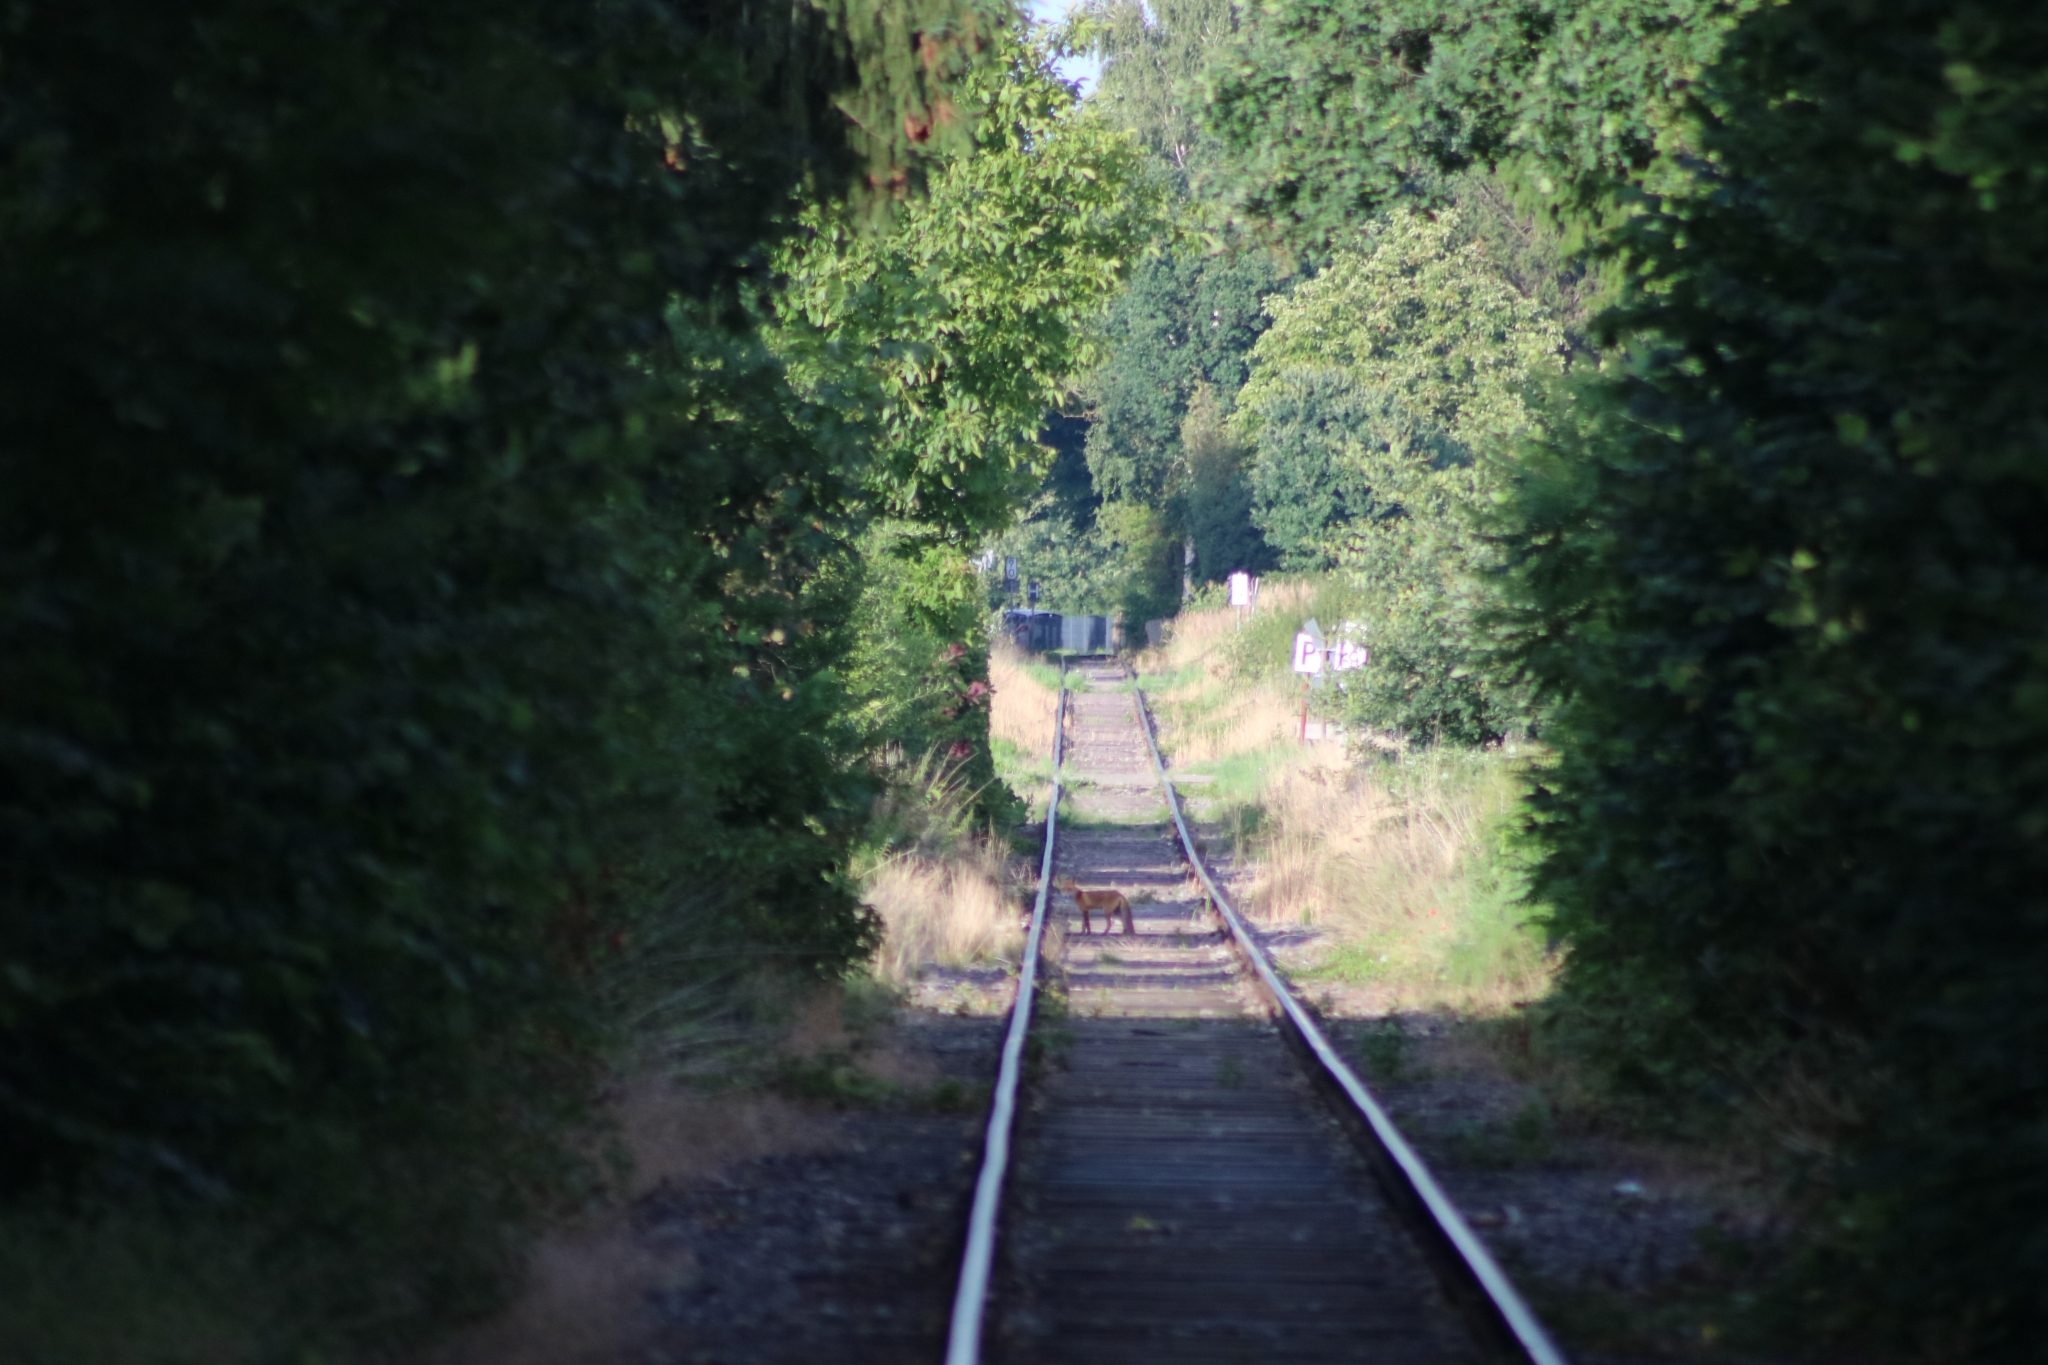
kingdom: Animalia
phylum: Chordata
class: Mammalia
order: Carnivora
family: Canidae
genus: Vulpes
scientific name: Vulpes vulpes
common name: Red fox
